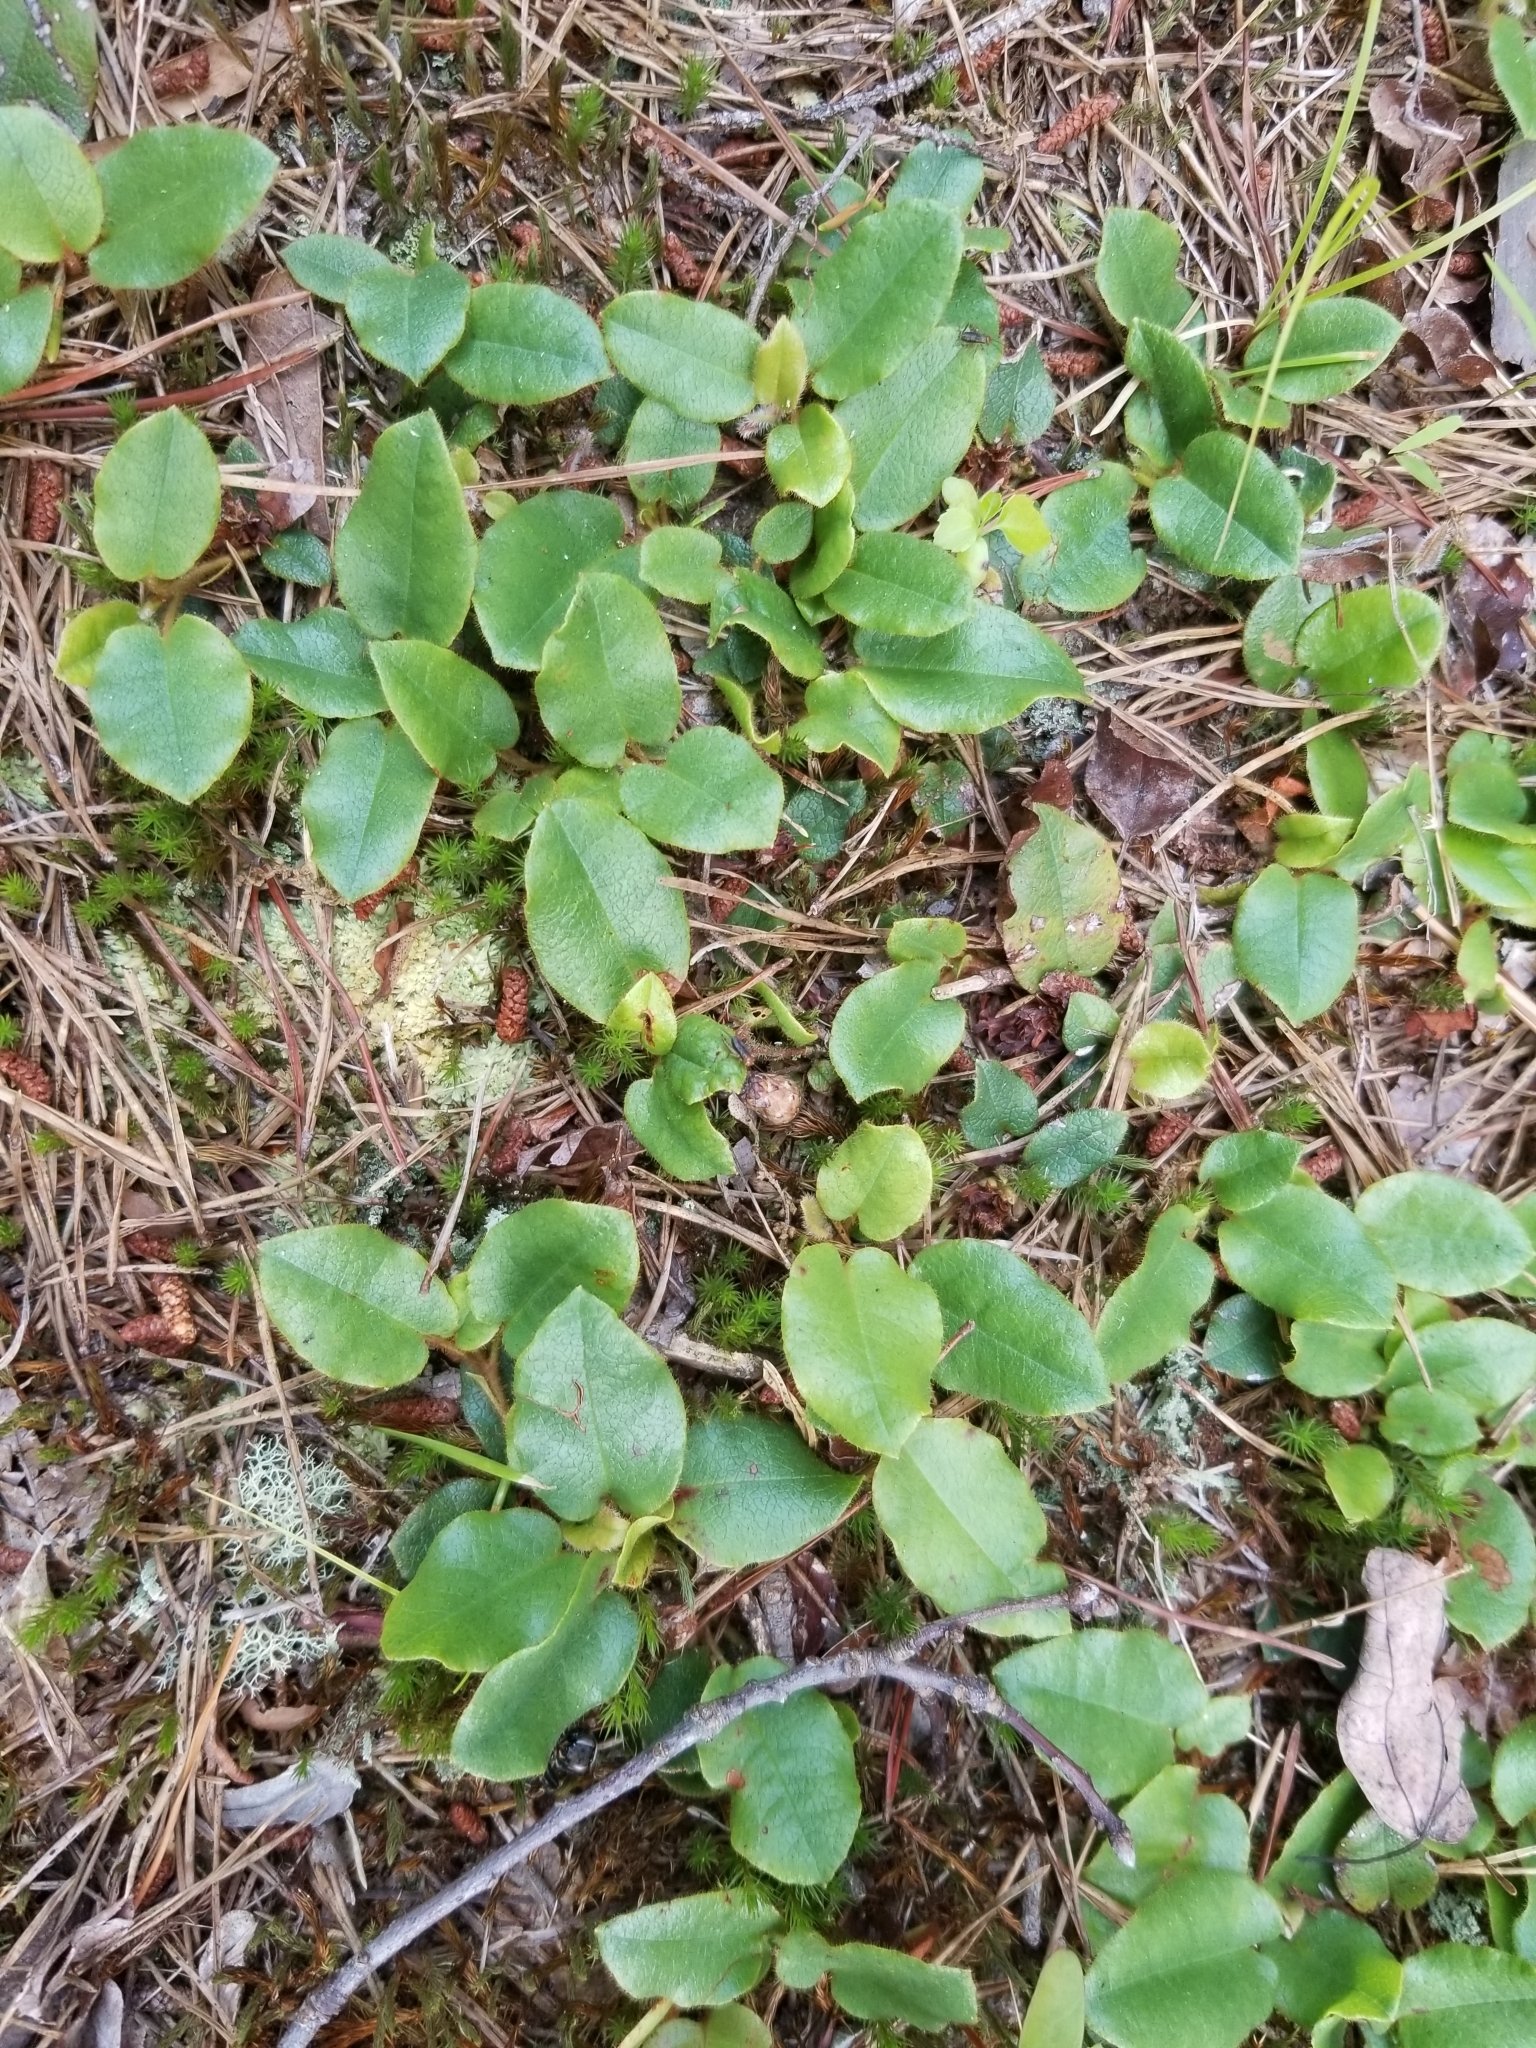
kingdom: Plantae
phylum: Tracheophyta
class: Magnoliopsida
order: Ericales
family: Ericaceae
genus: Epigaea
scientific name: Epigaea repens
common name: Gravelroot
